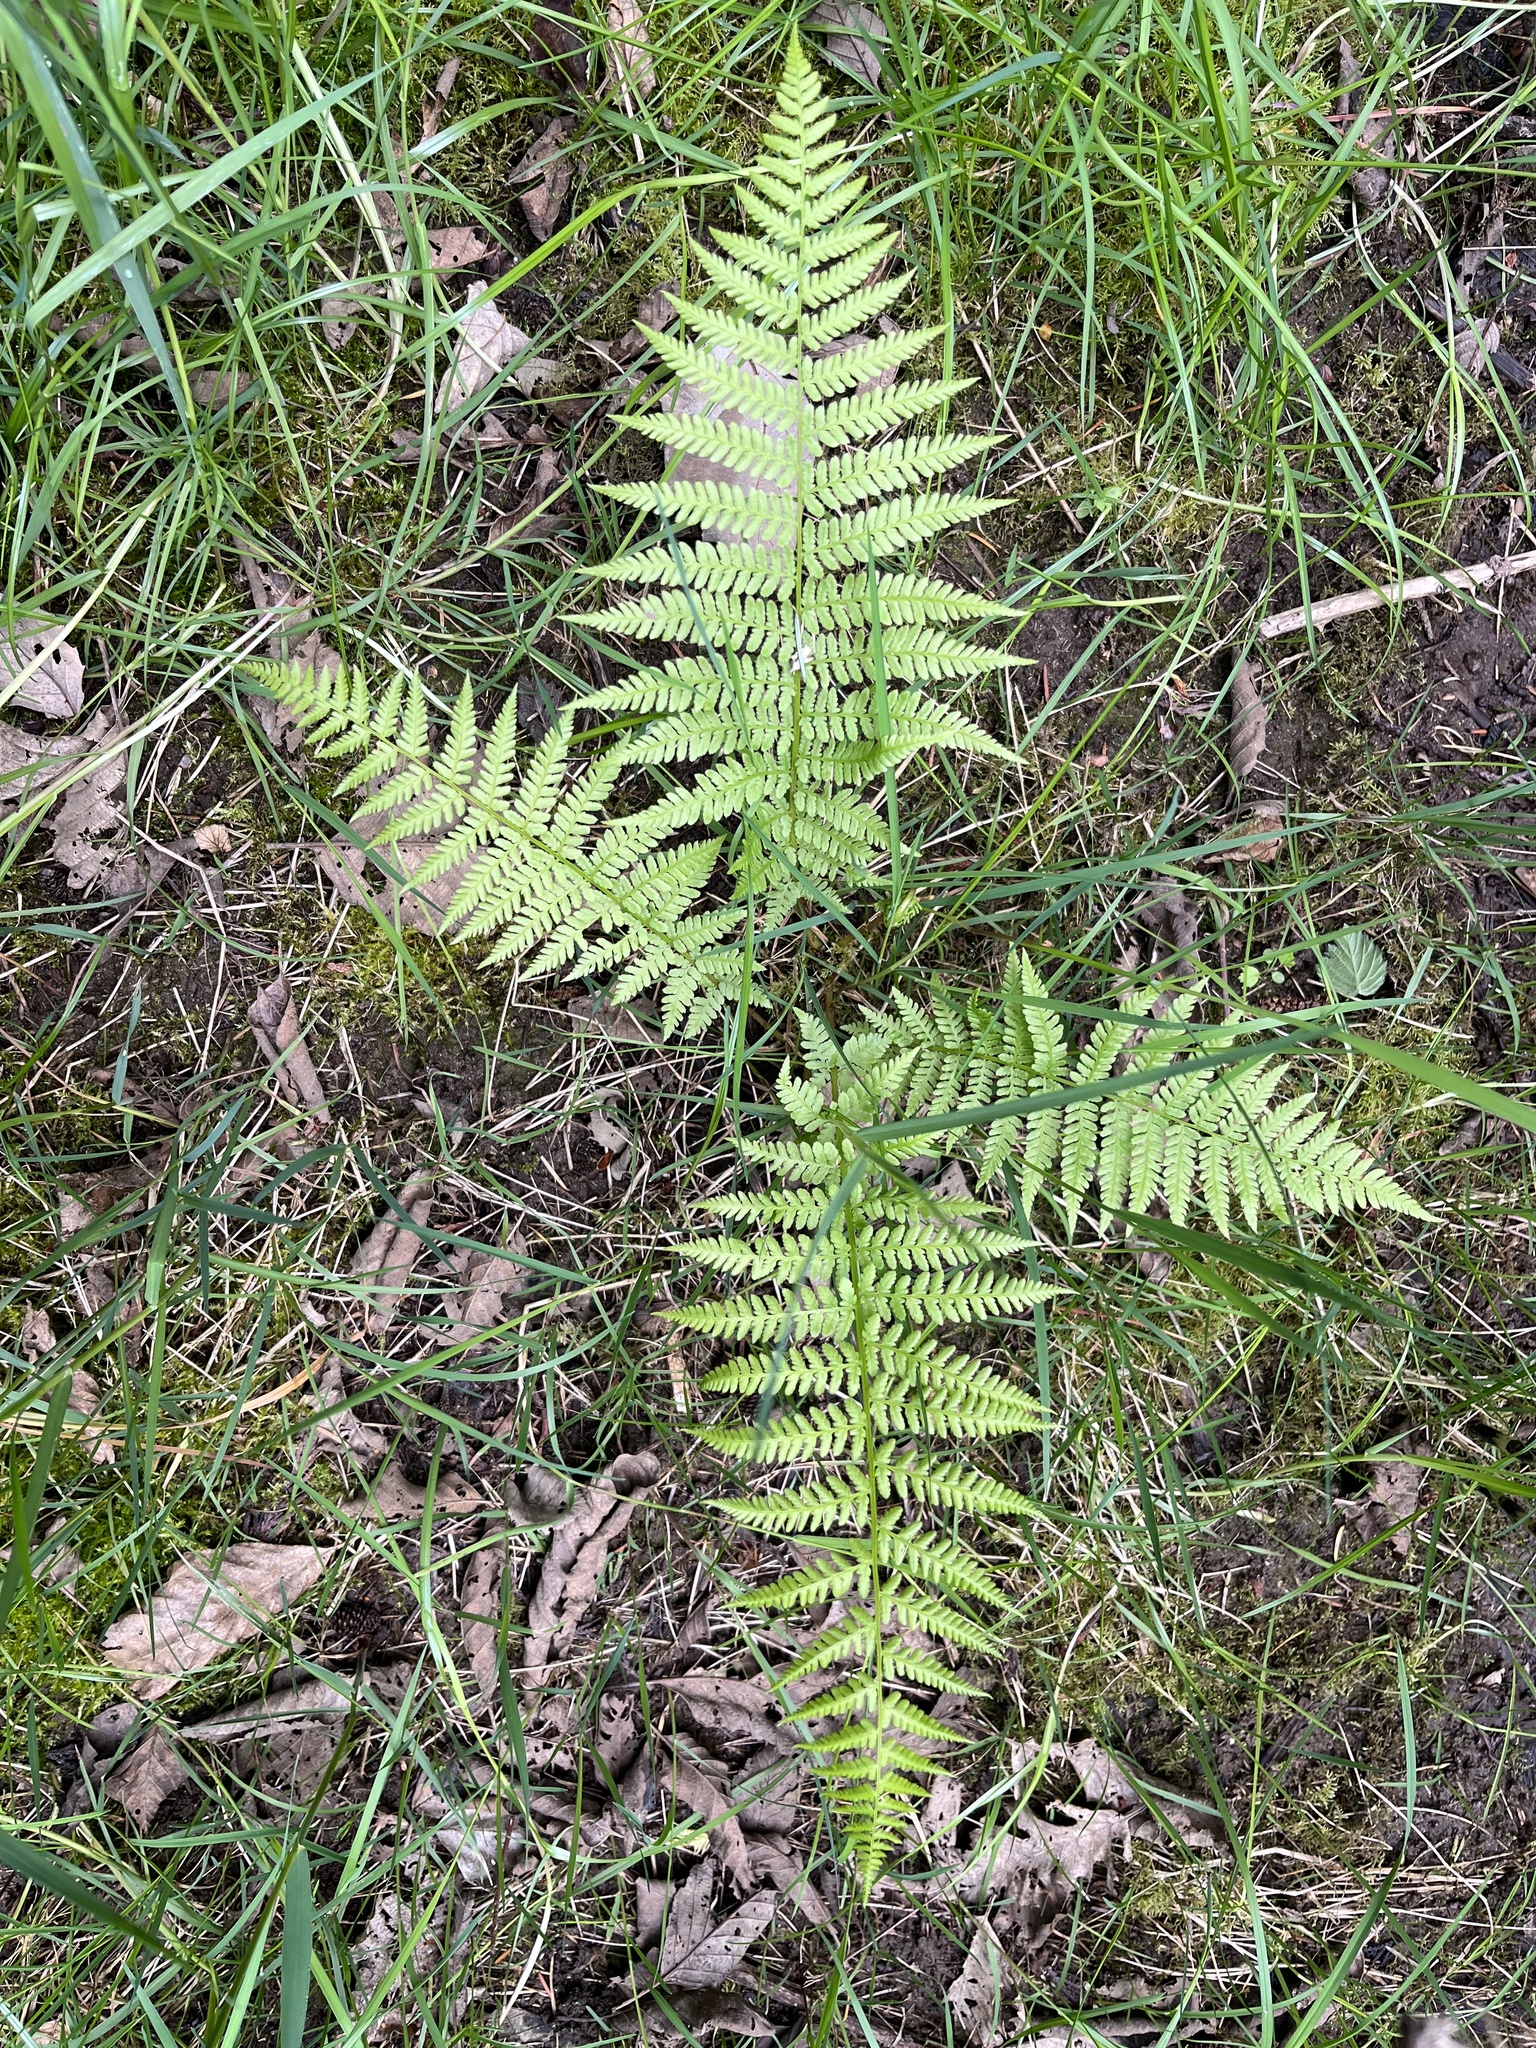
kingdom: Plantae
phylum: Tracheophyta
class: Polypodiopsida
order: Polypodiales
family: Athyriaceae
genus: Athyrium
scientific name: Athyrium cyclosorum
